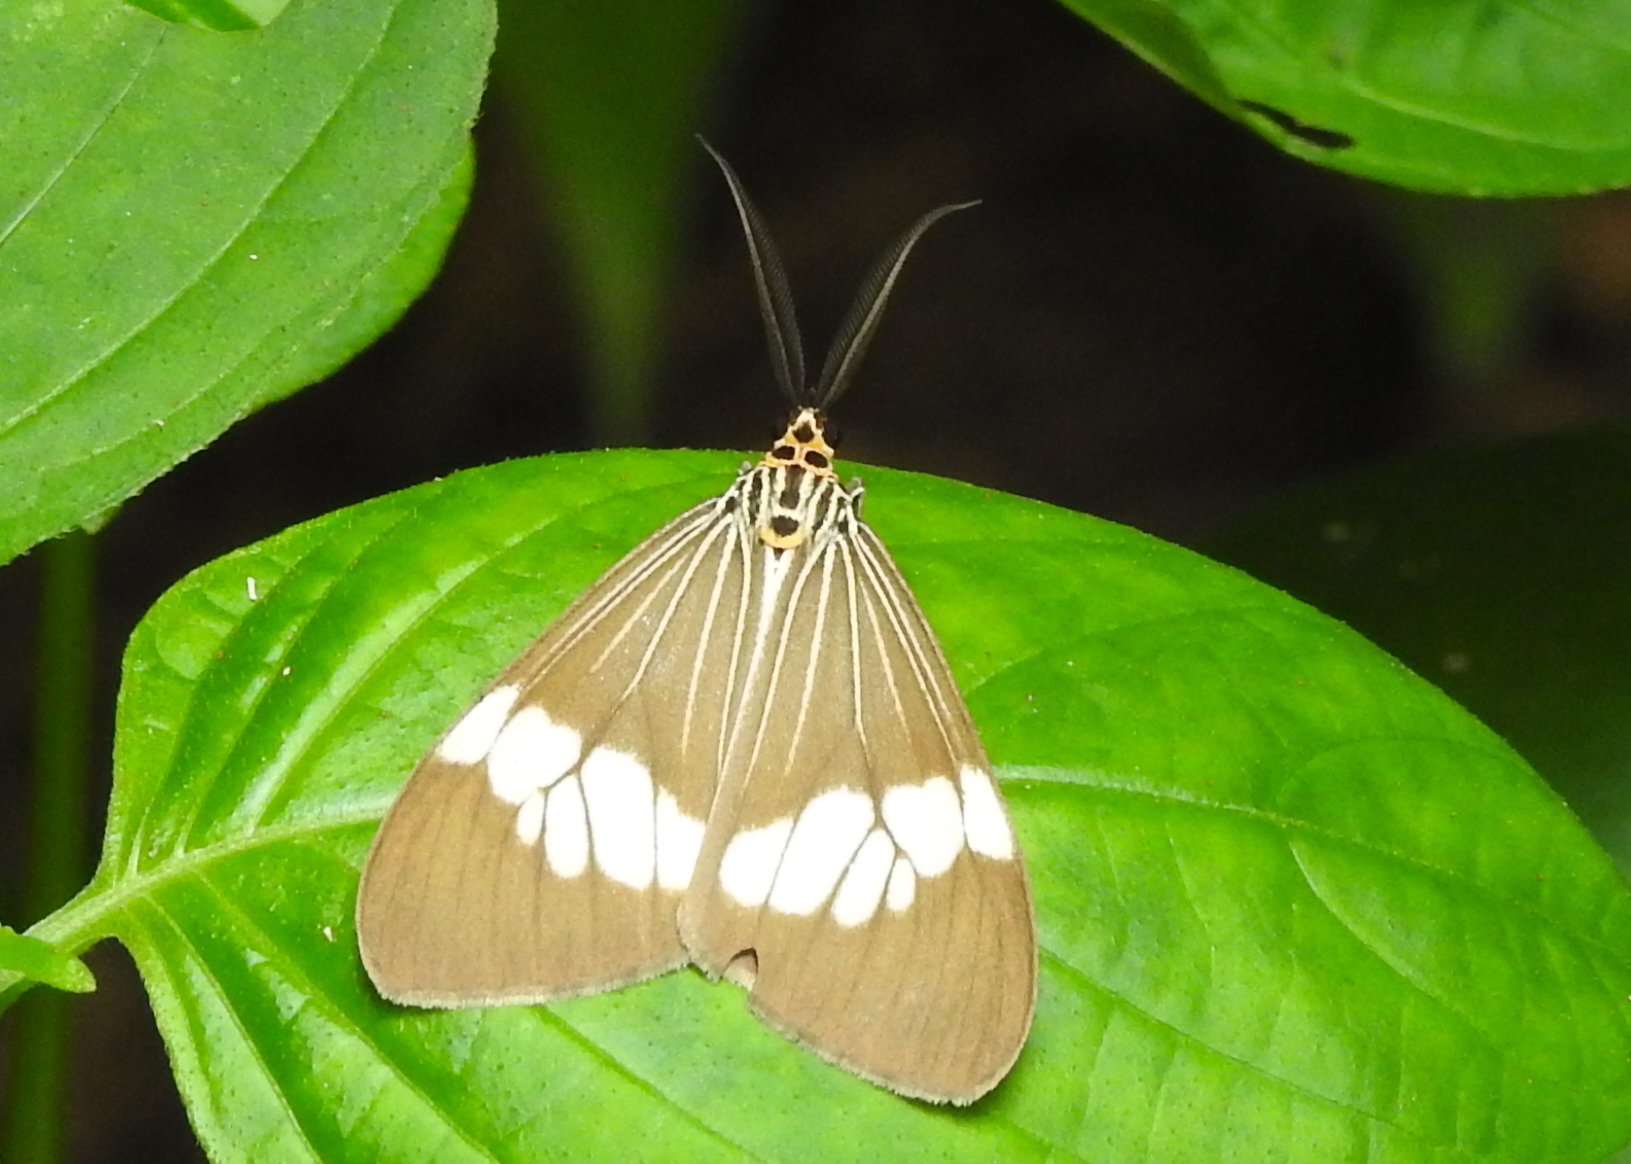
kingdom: Animalia
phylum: Arthropoda
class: Insecta
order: Lepidoptera
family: Erebidae
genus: Nyctemera
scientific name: Nyctemera baulus
